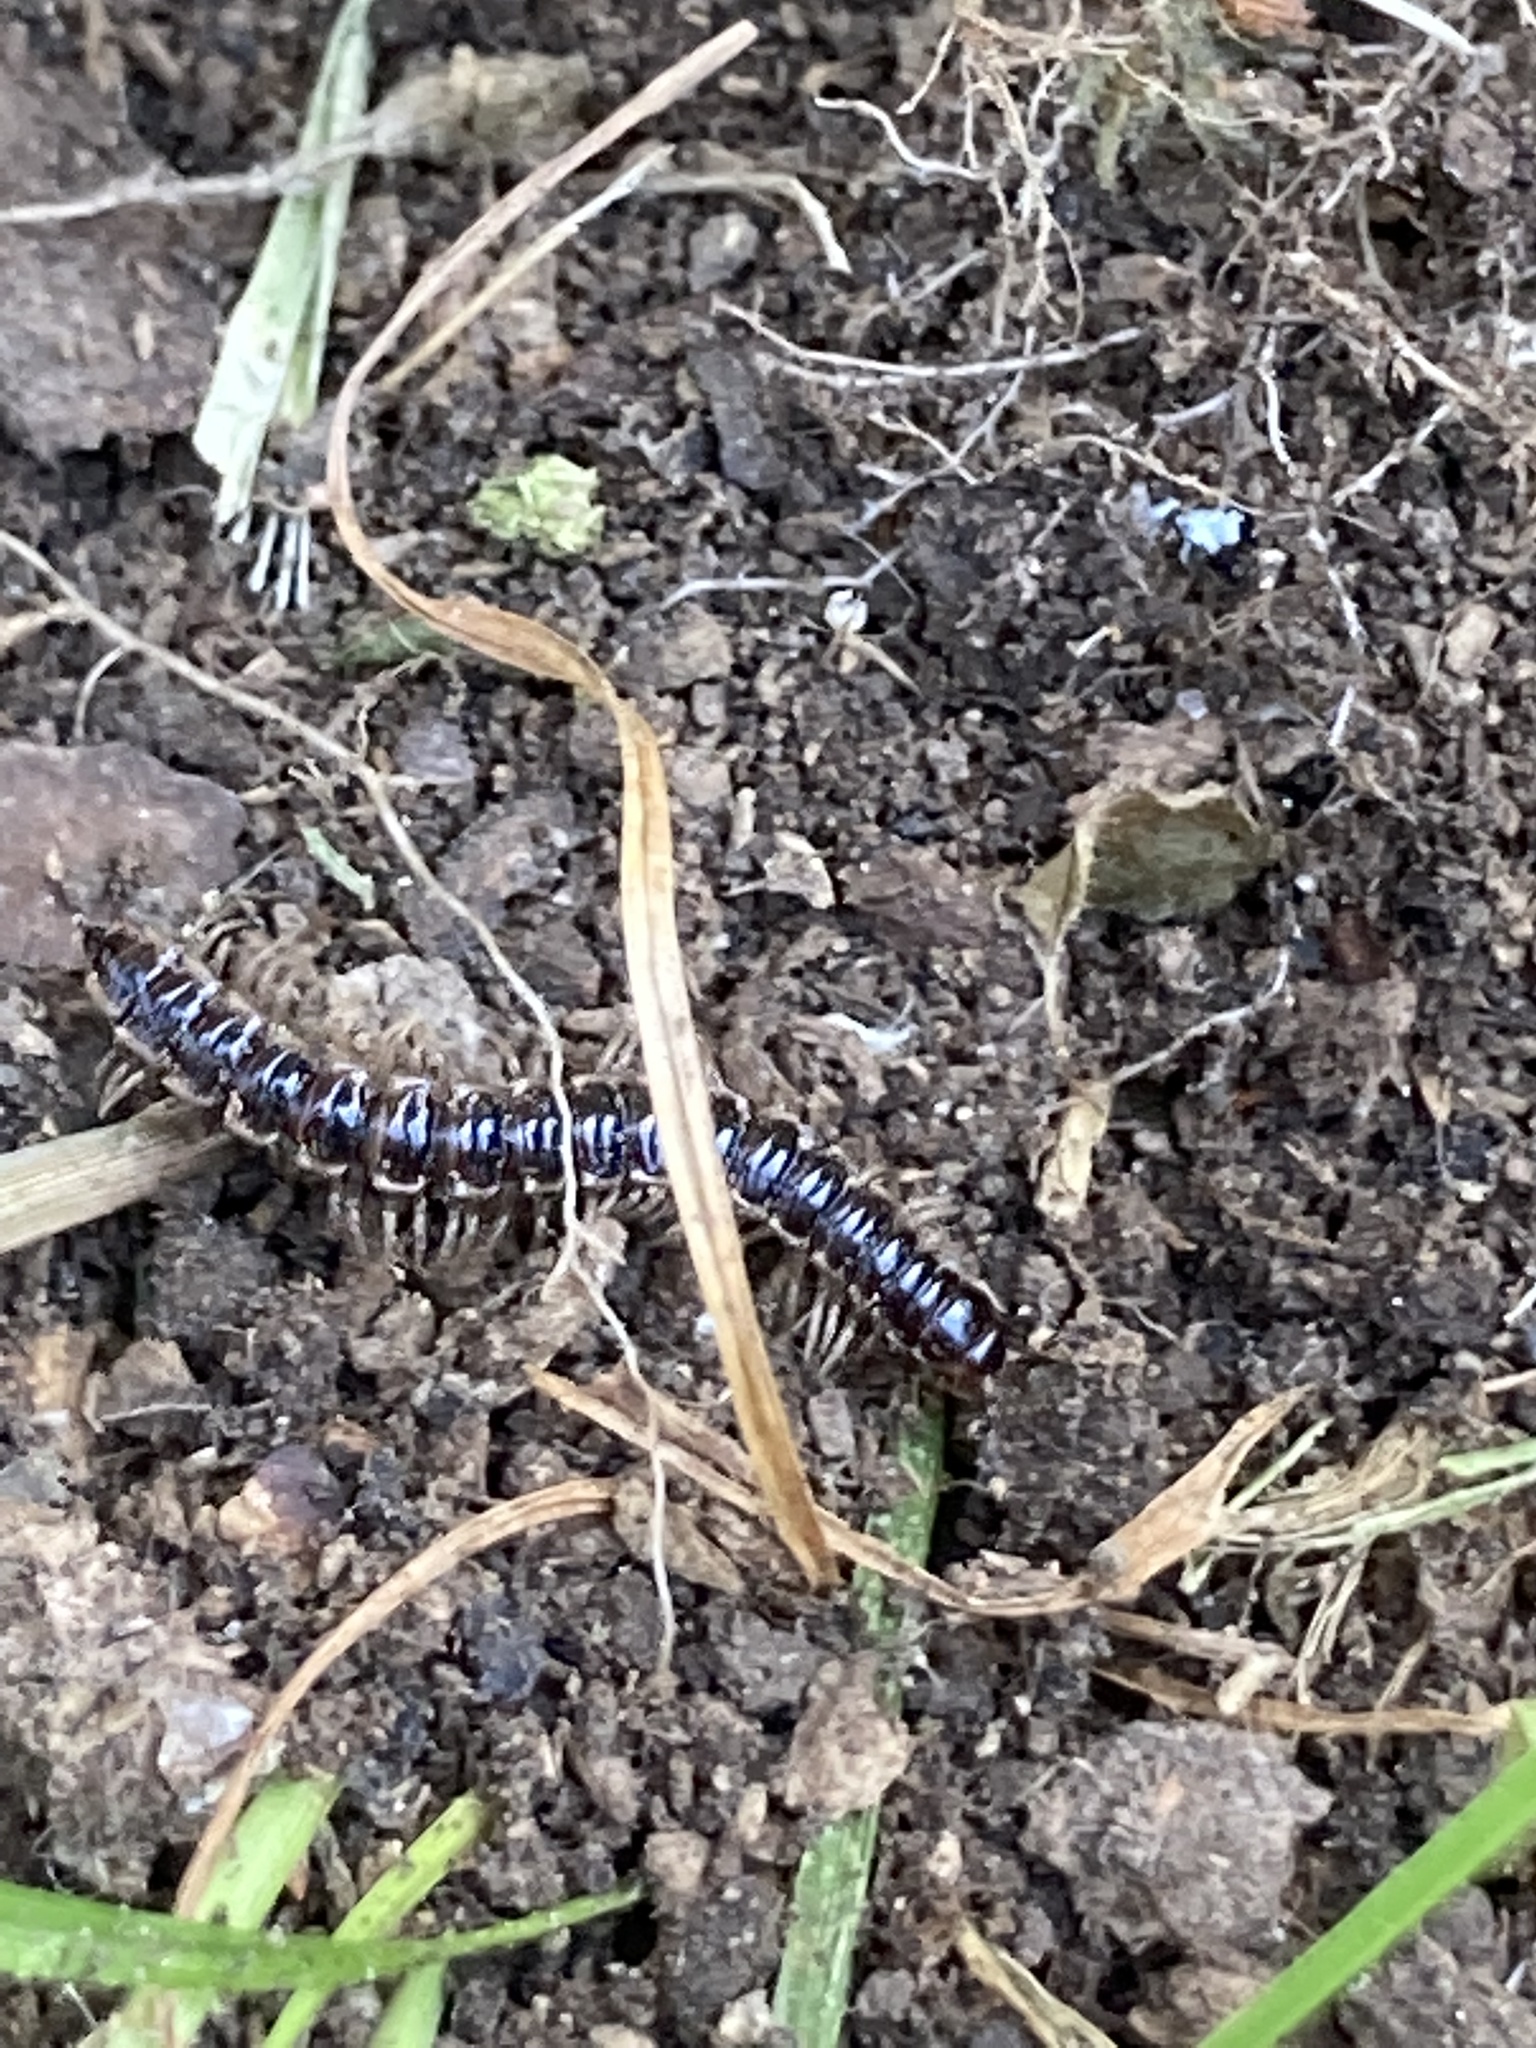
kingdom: Animalia
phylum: Arthropoda
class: Diplopoda
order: Polydesmida
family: Paradoxosomatidae
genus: Oxidus
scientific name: Oxidus gracilis
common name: Greenhouse millipede
